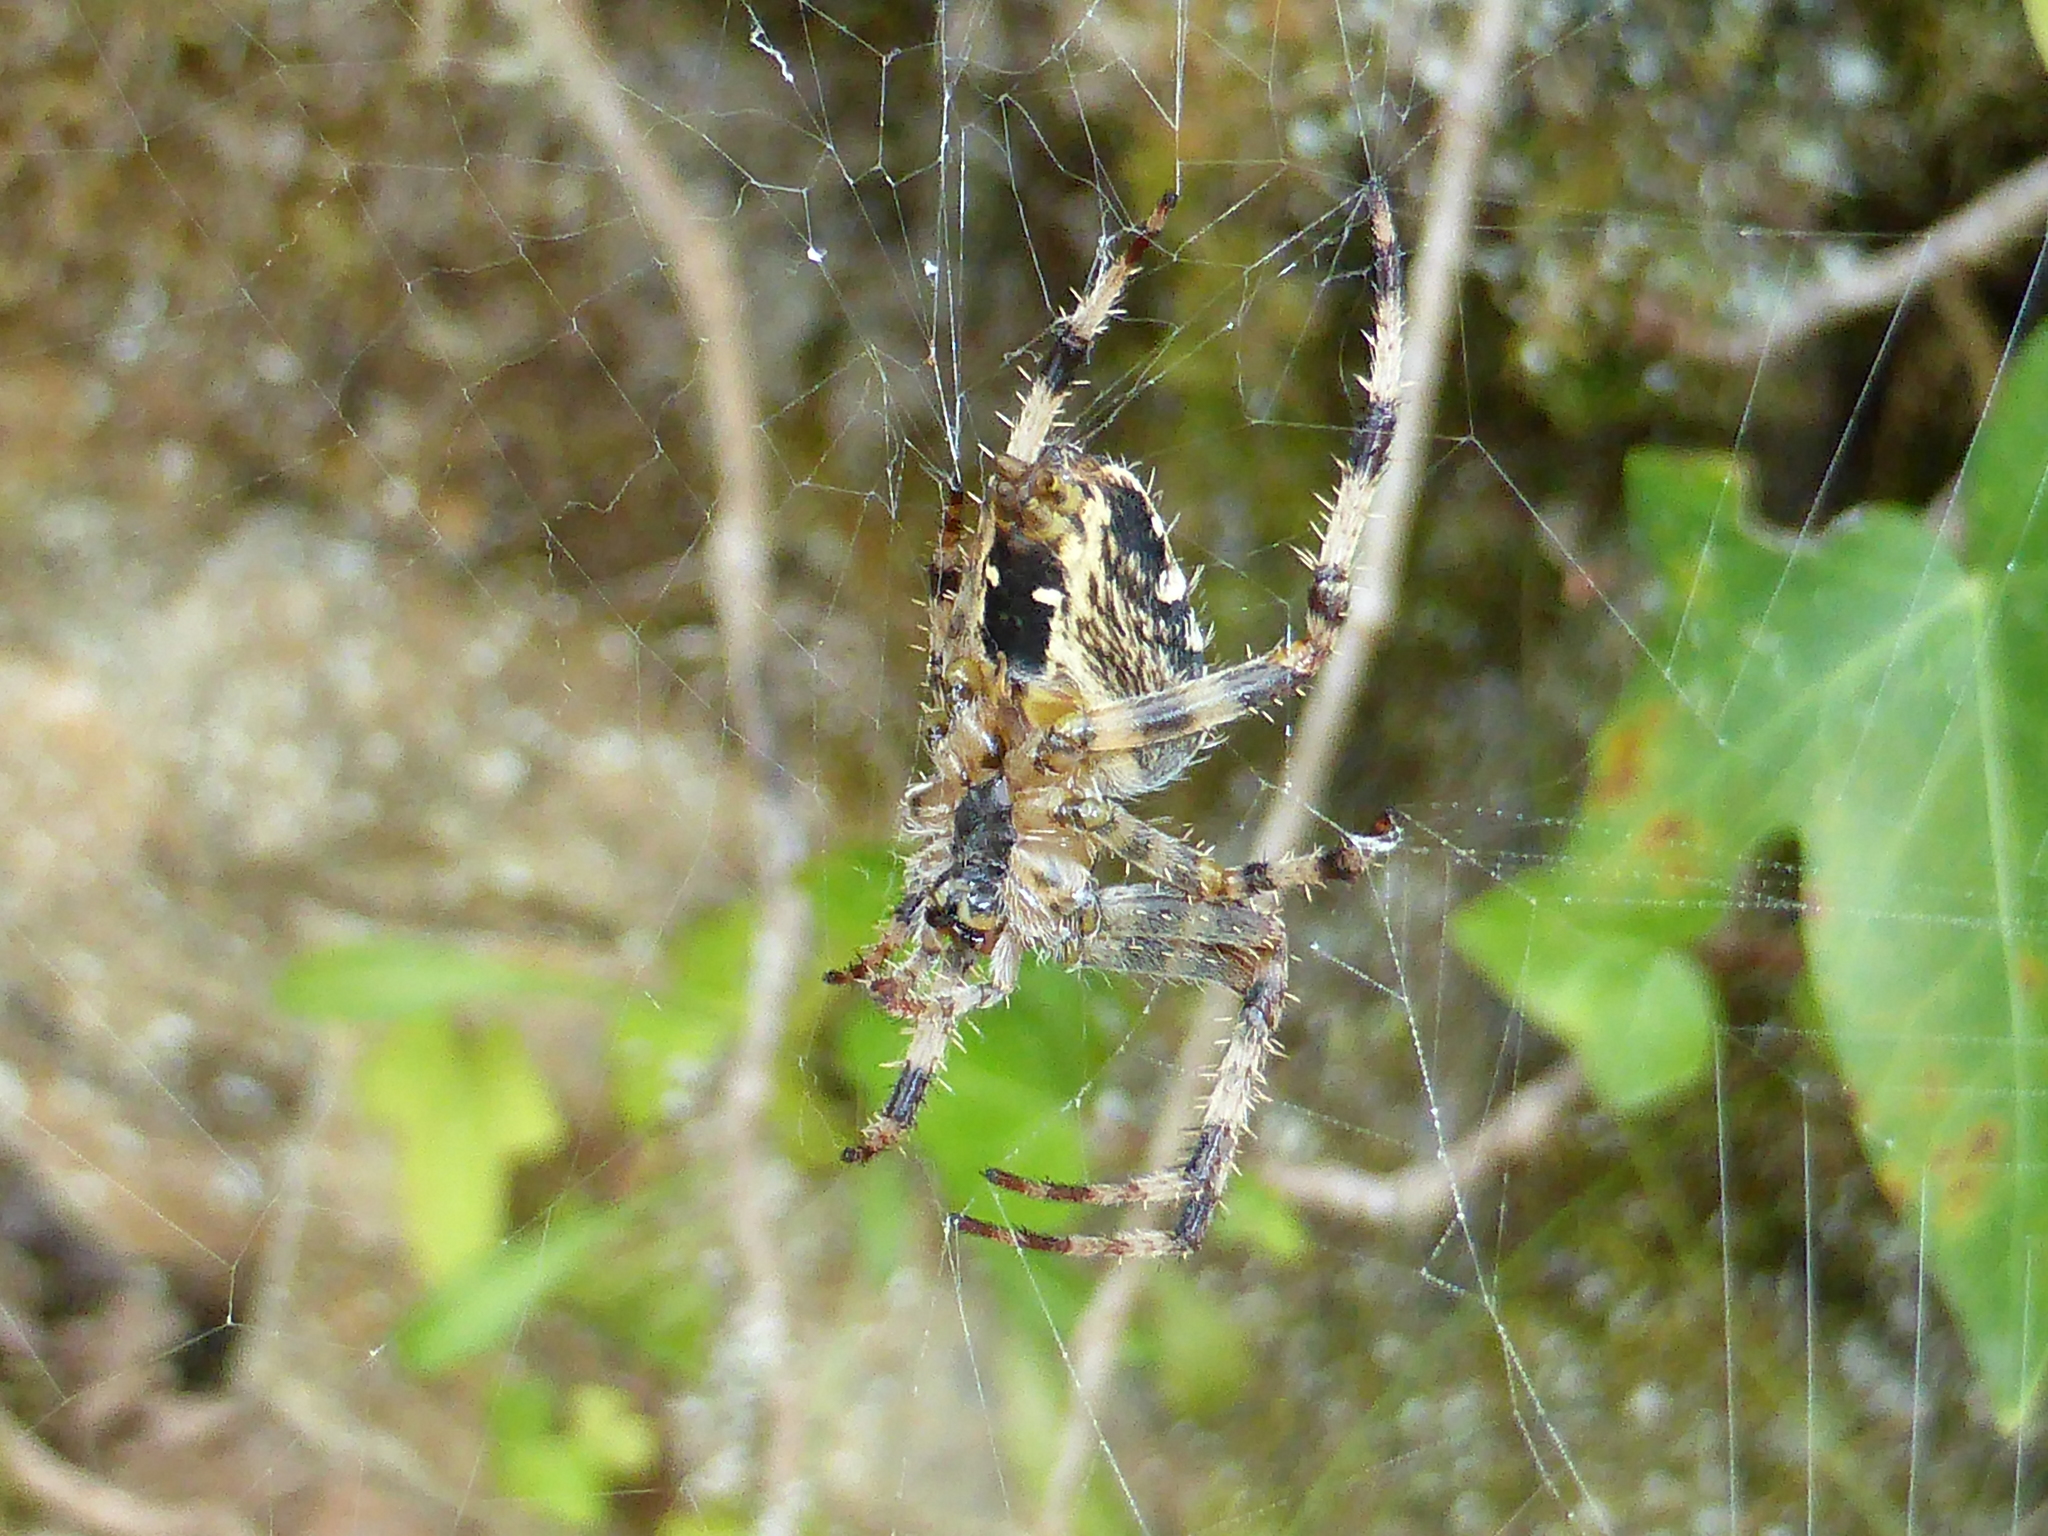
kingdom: Animalia
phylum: Arthropoda
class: Arachnida
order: Araneae
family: Araneidae
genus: Araneus
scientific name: Araneus diadematus
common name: Cross orbweaver
